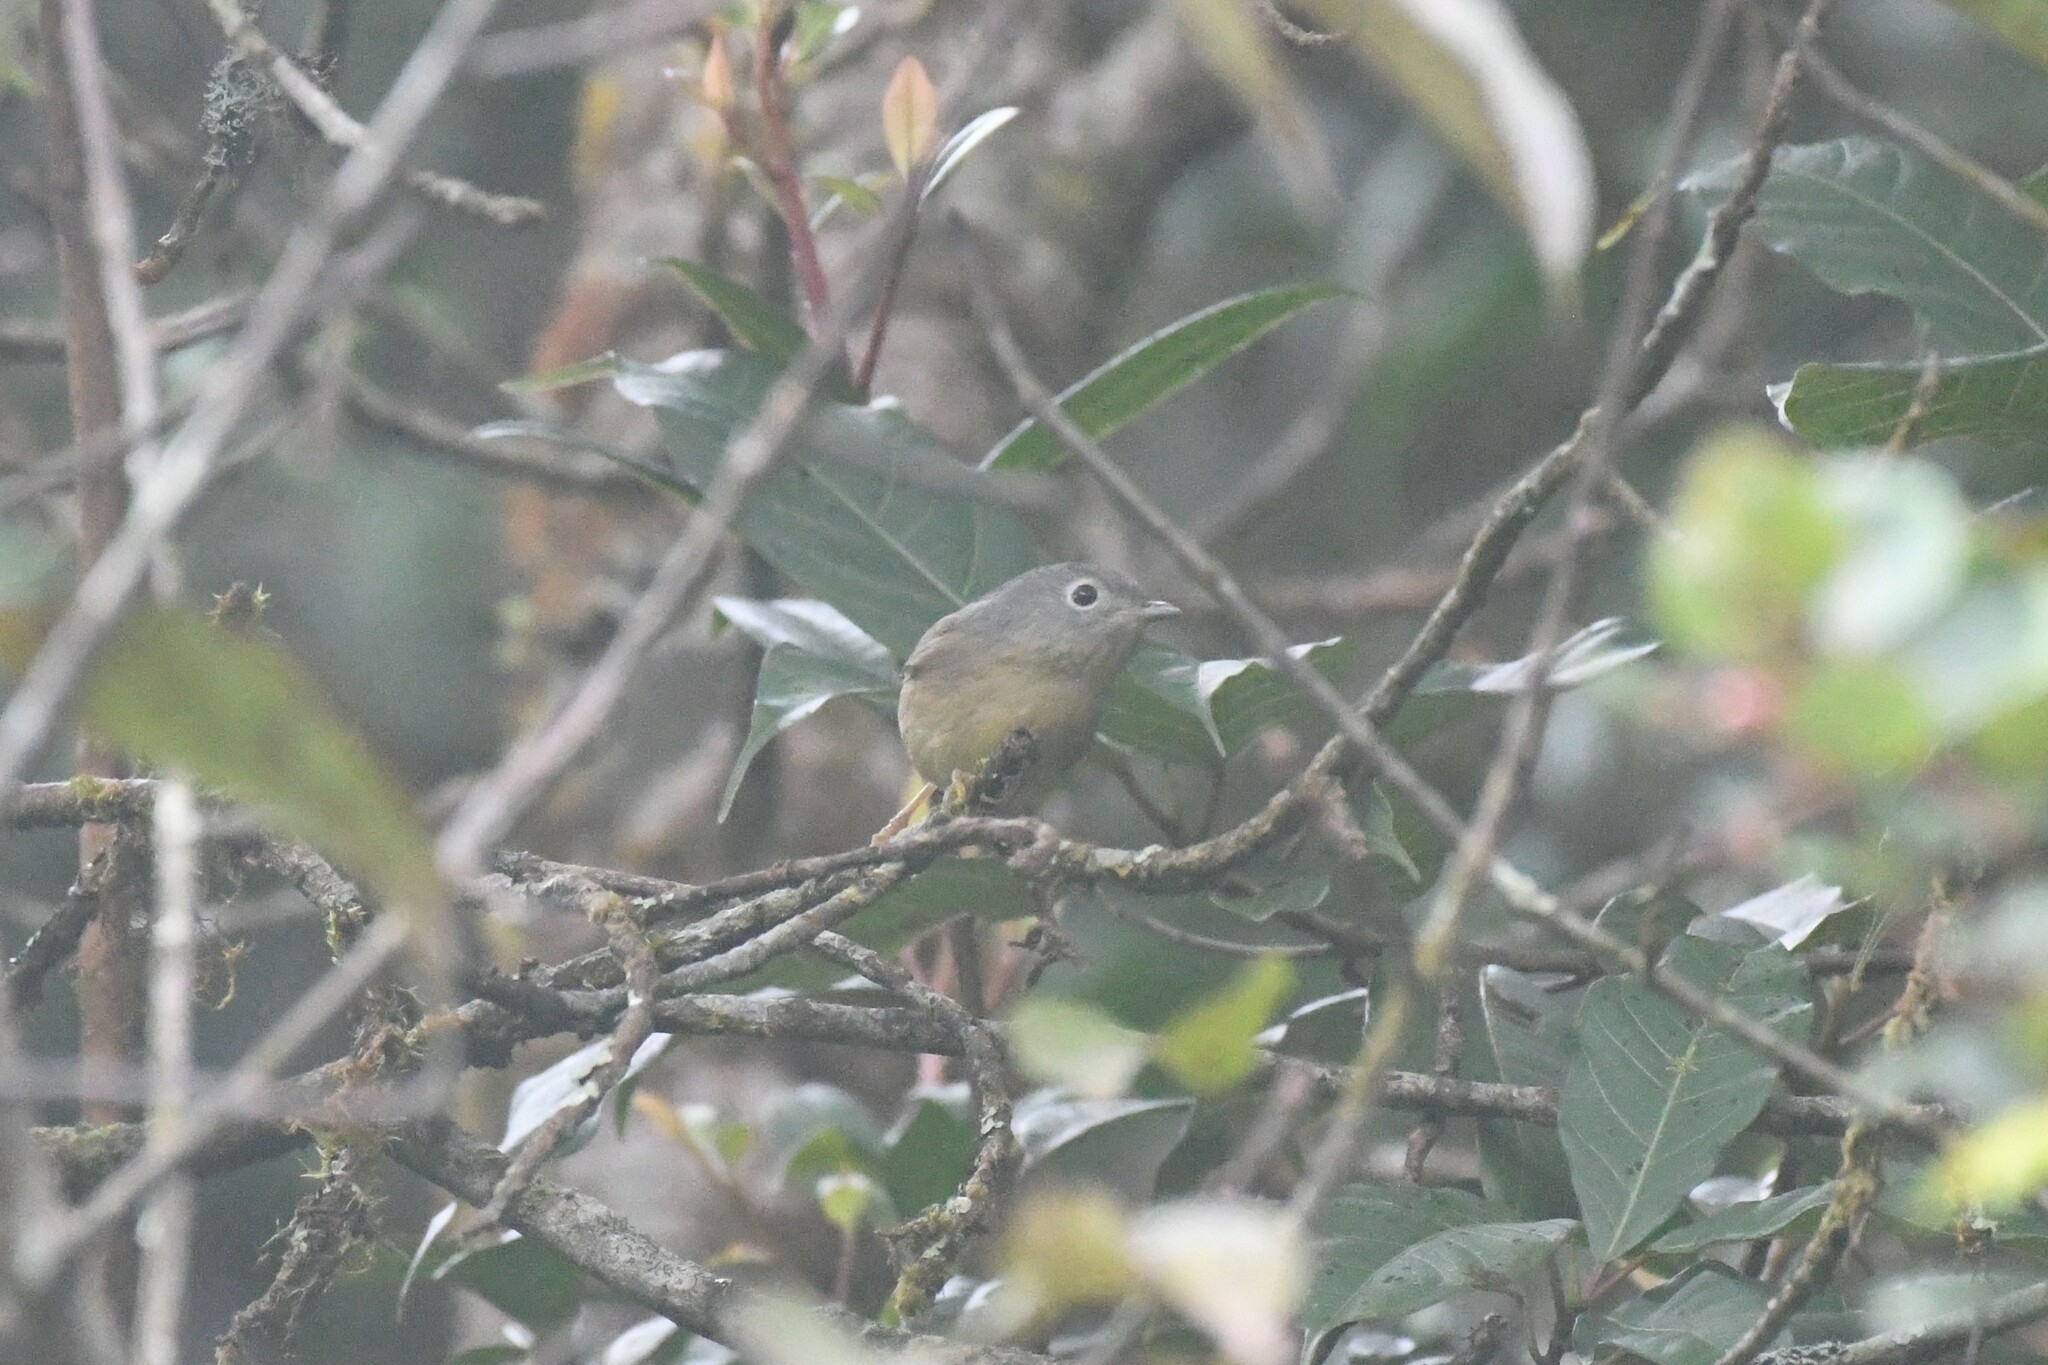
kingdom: Animalia
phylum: Chordata
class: Aves
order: Passeriformes
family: Pellorneidae
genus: Alcippe
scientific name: Alcippe fratercula
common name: Yunnan fulvetta
